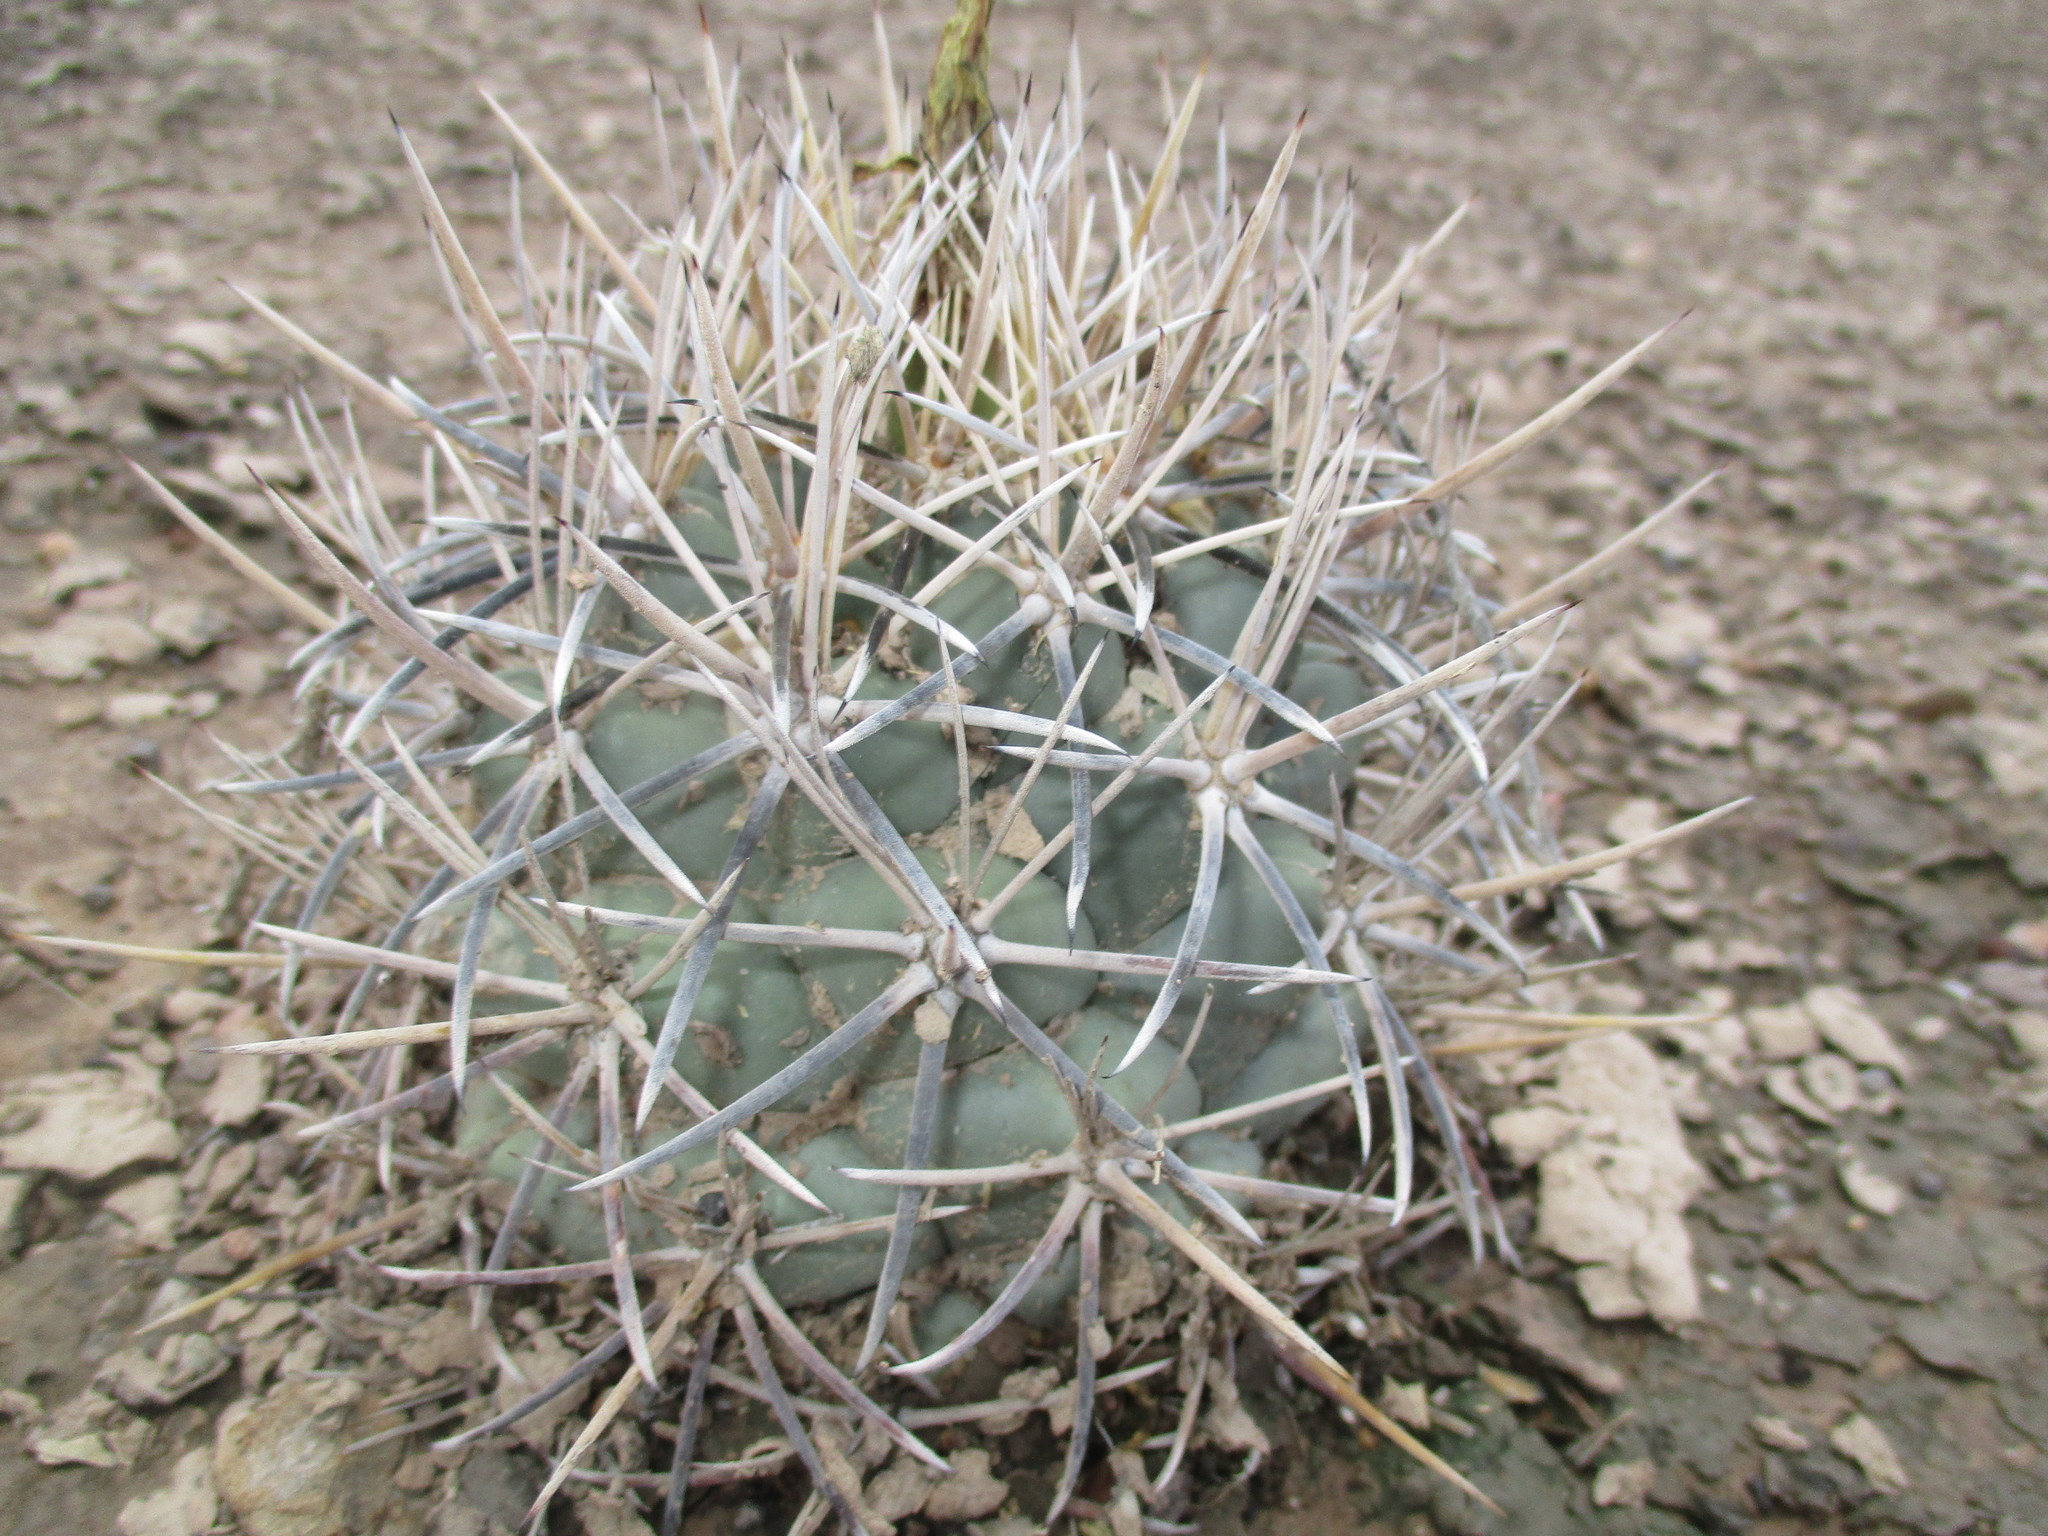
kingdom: Plantae
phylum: Tracheophyta
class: Magnoliopsida
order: Caryophyllales
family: Cactaceae
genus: Coryphantha
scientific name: Coryphantha poselgeriana
